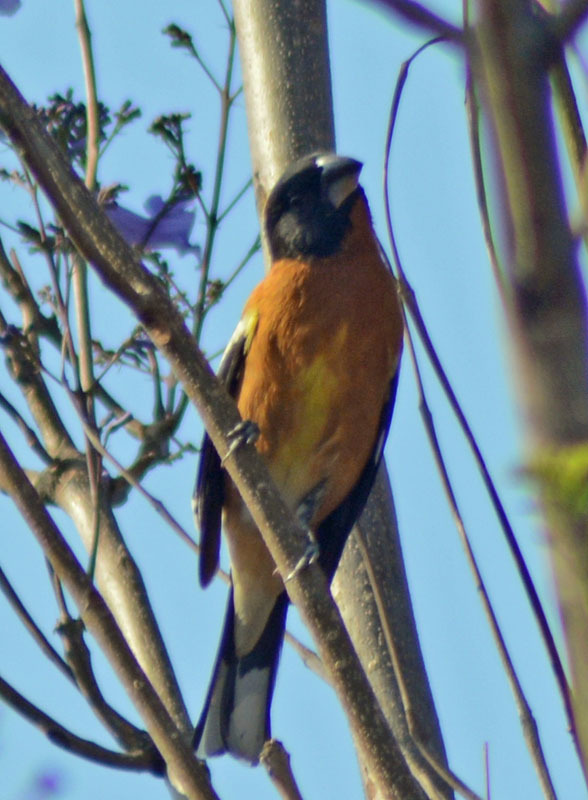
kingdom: Animalia
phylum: Chordata
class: Aves
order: Passeriformes
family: Cardinalidae
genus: Pheucticus
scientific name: Pheucticus melanocephalus
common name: Black-headed grosbeak
